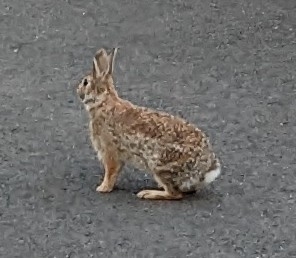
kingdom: Animalia
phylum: Chordata
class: Mammalia
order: Lagomorpha
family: Leporidae
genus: Sylvilagus
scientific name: Sylvilagus floridanus
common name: Eastern cottontail
